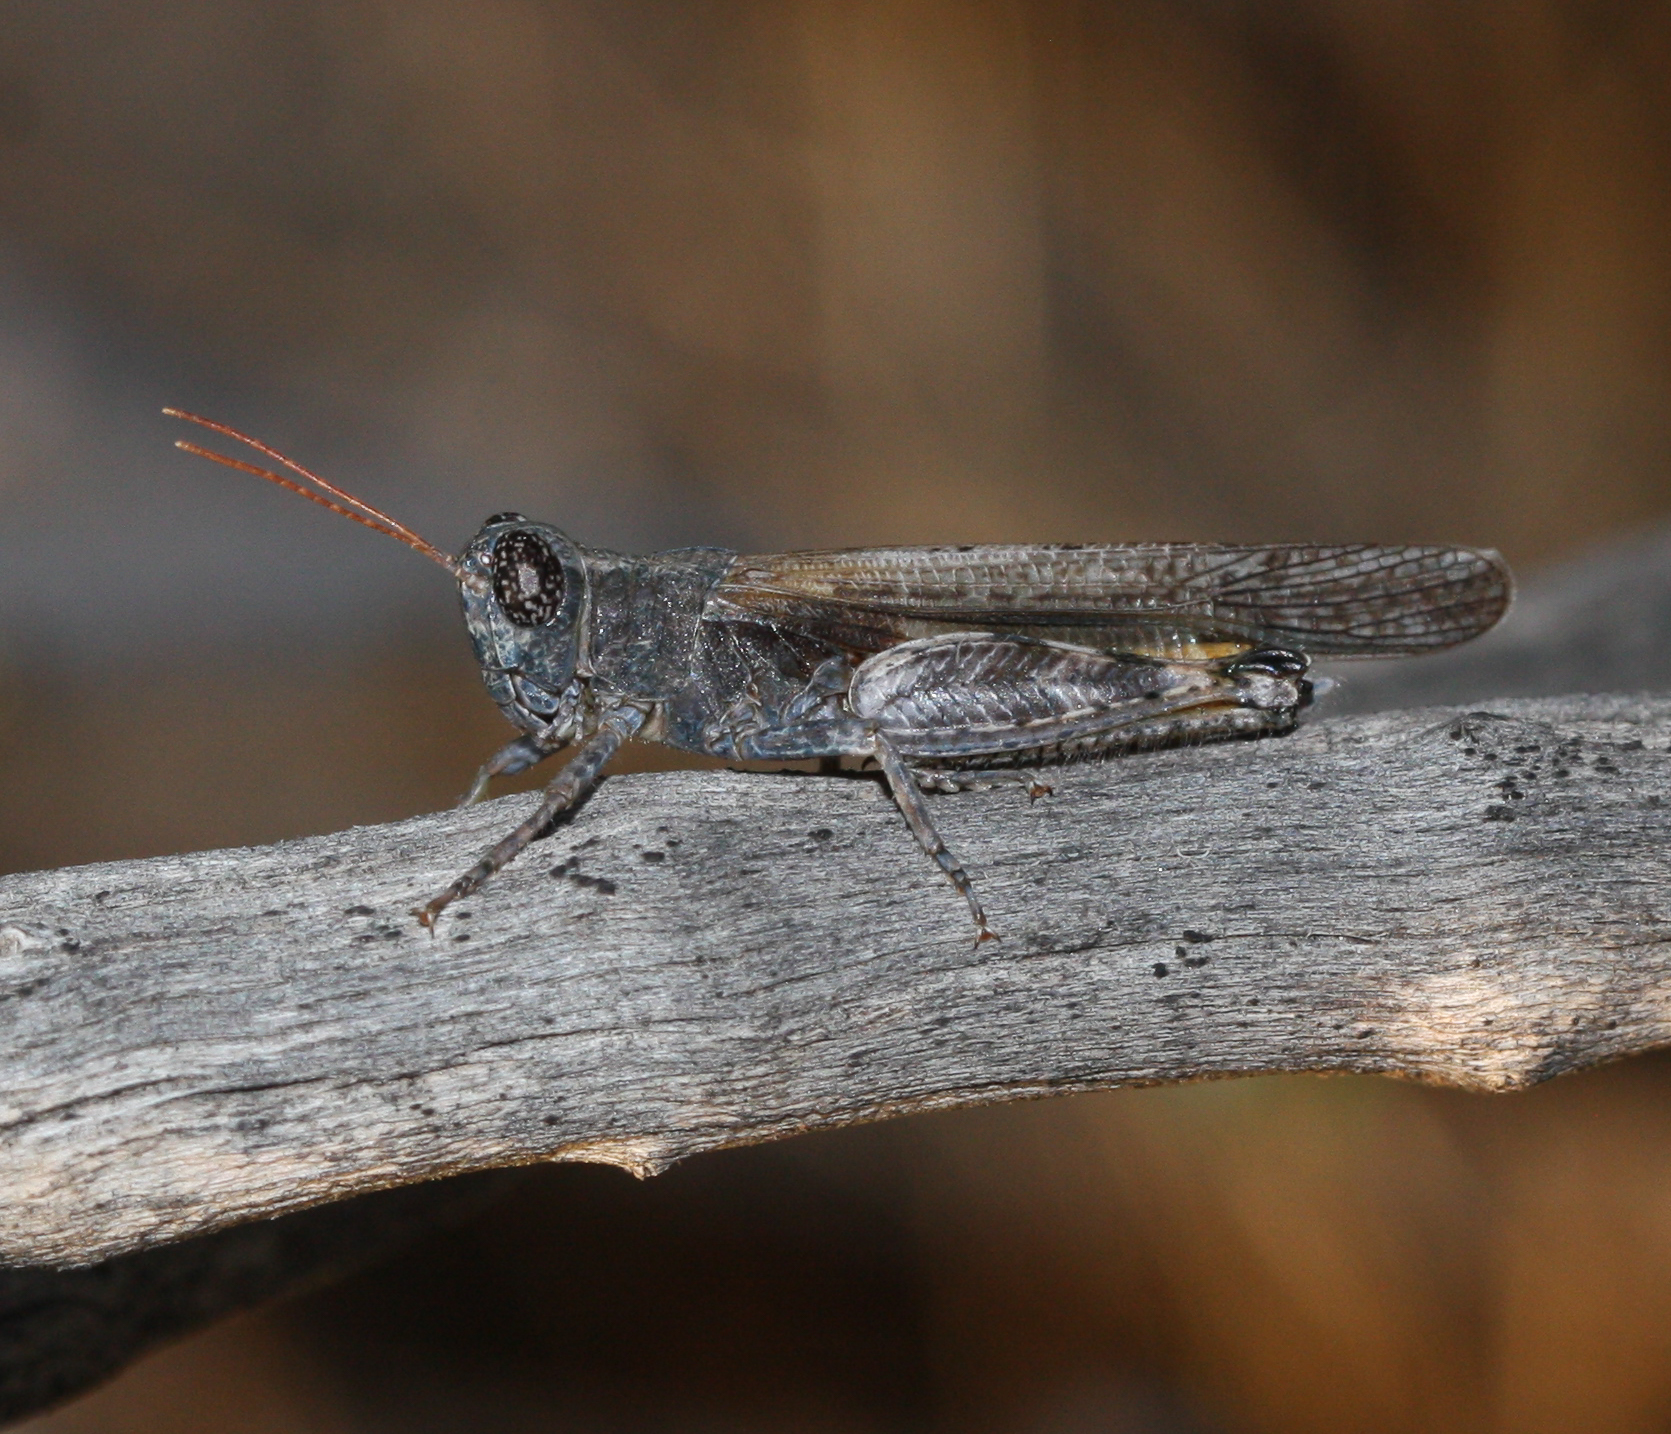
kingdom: Animalia
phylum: Arthropoda
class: Insecta
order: Orthoptera
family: Acrididae
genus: Ligurotettix
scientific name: Ligurotettix coquilletti
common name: Desert clicker grasshopper
